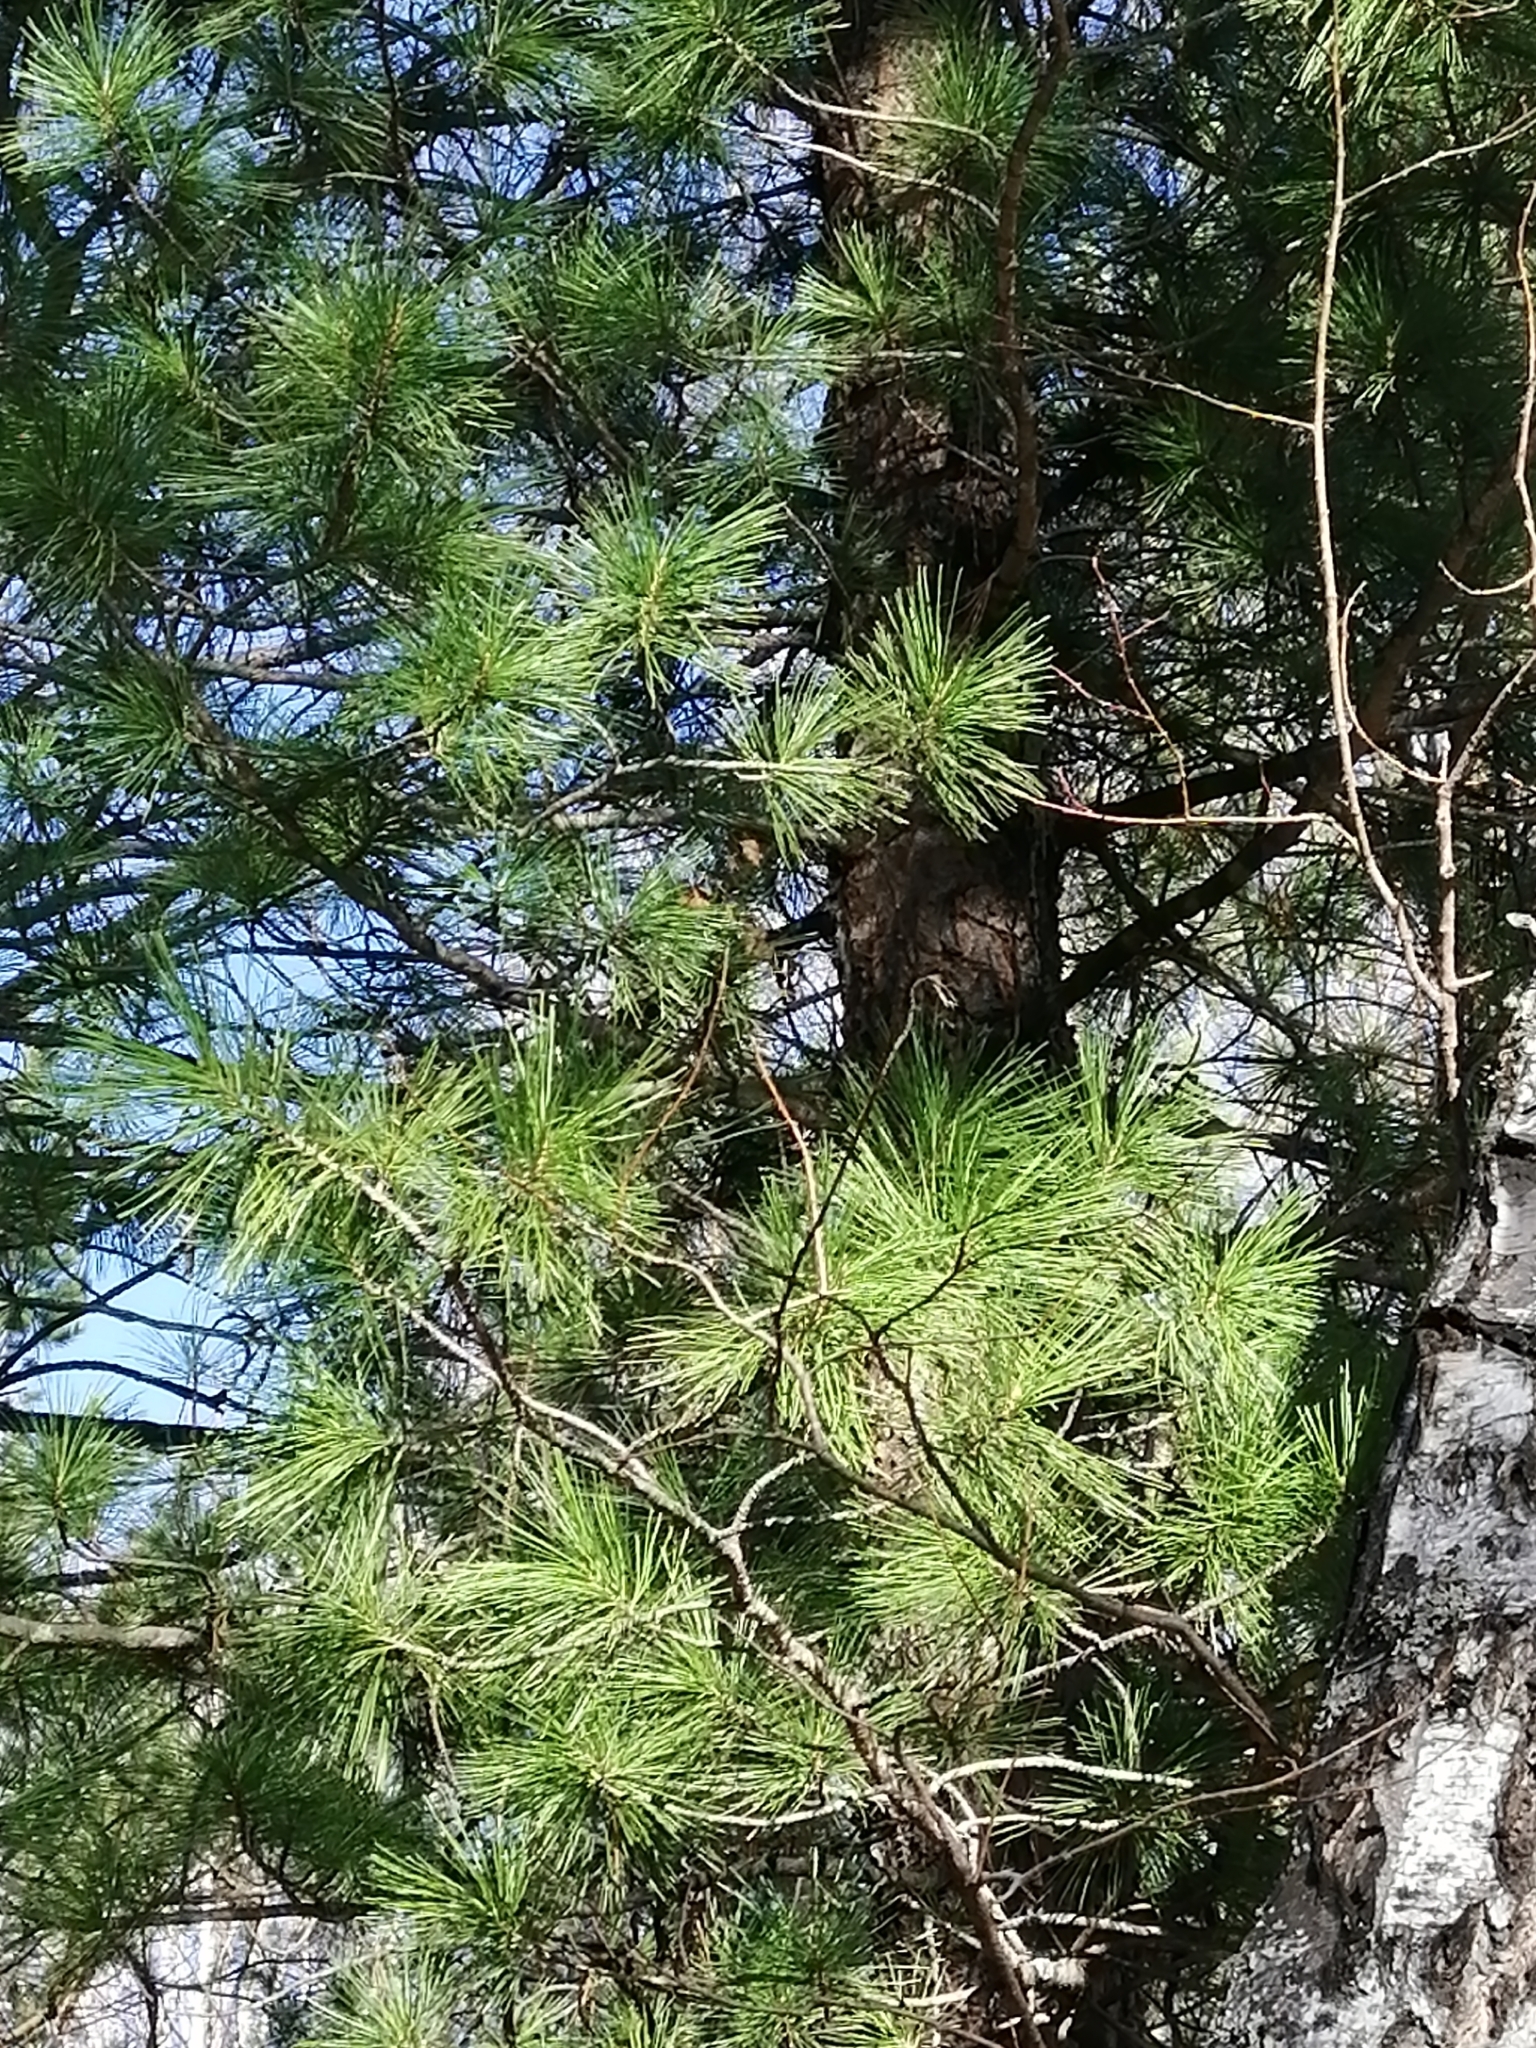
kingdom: Plantae
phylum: Tracheophyta
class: Pinopsida
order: Pinales
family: Pinaceae
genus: Pinus
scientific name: Pinus sibirica
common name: Siberian pine
